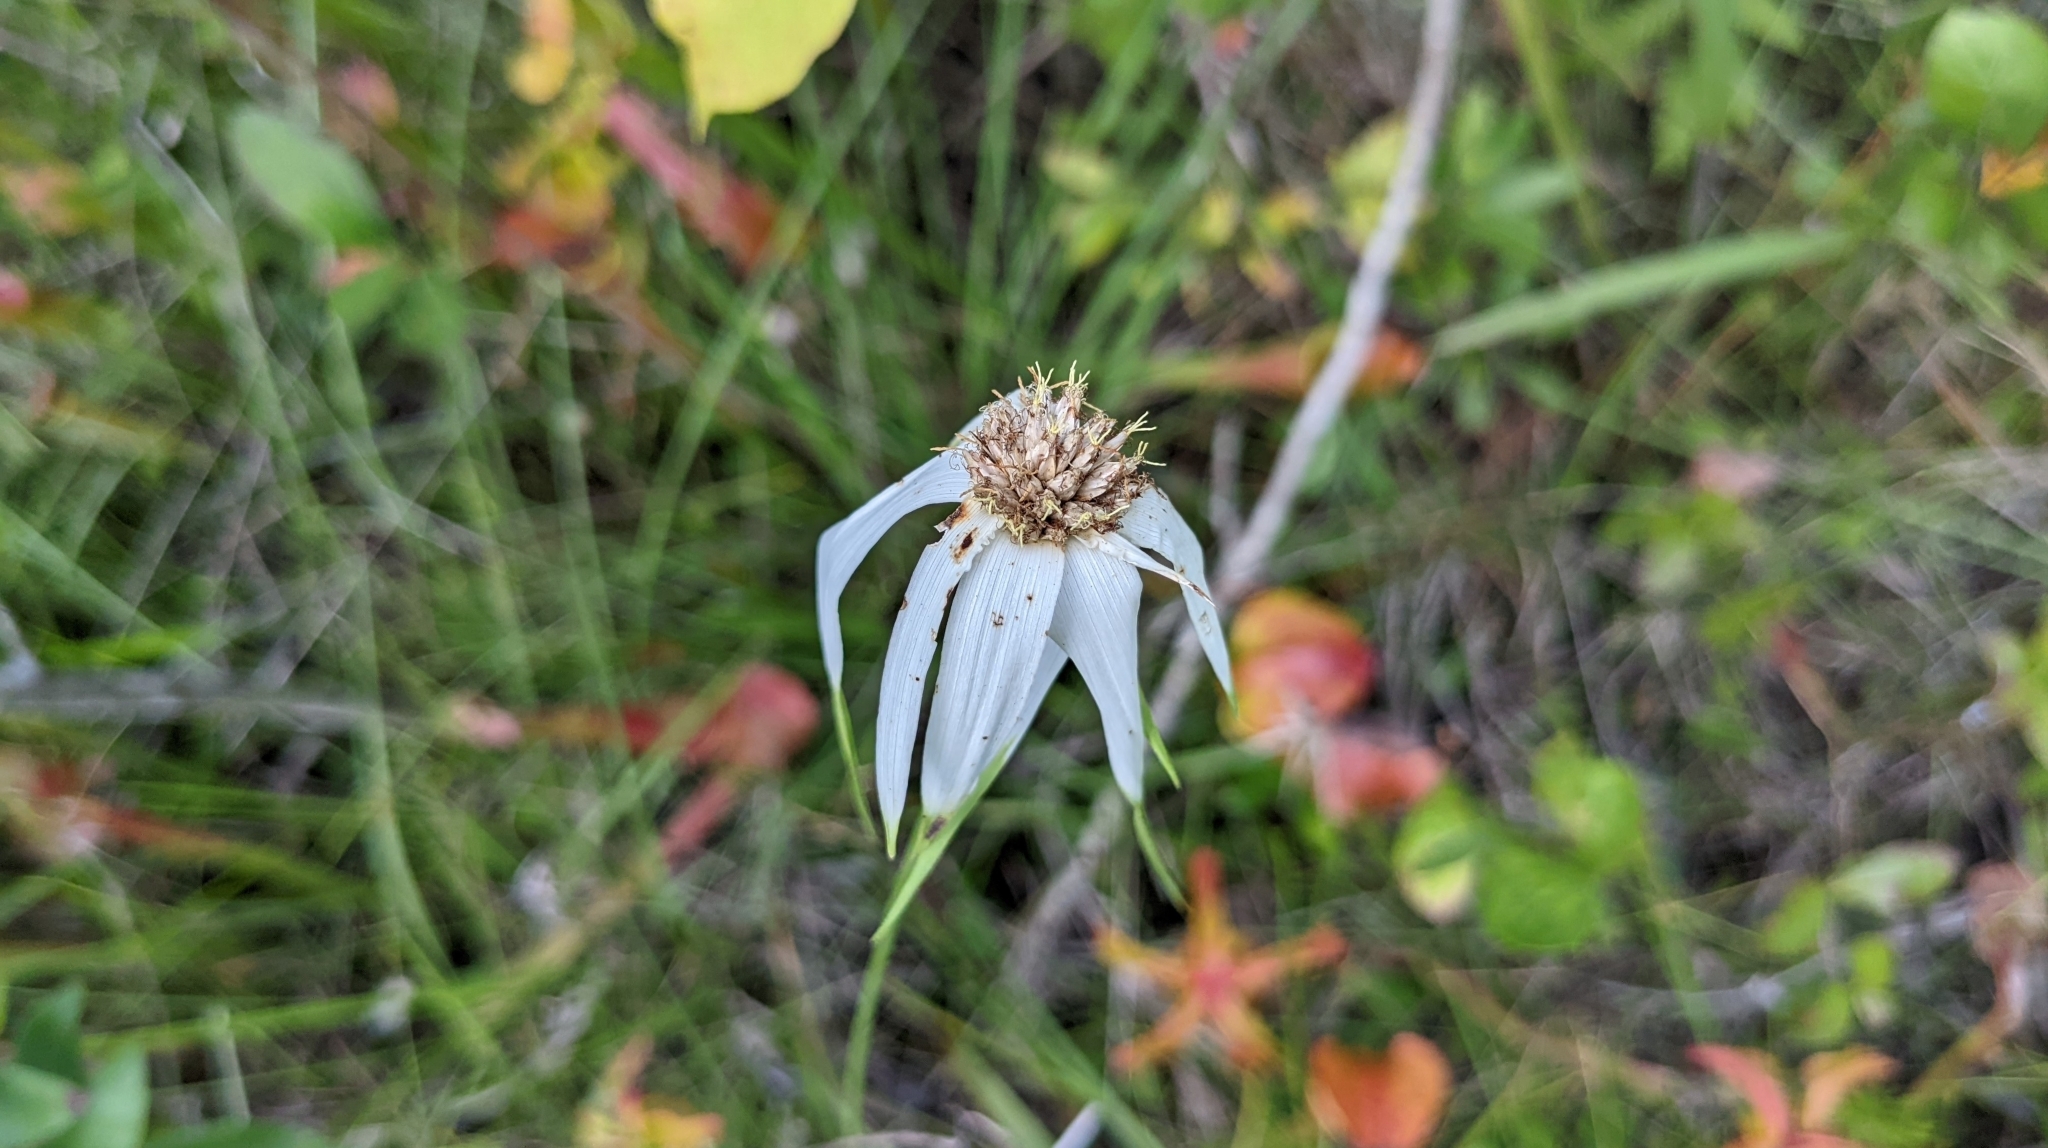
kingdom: Plantae
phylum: Tracheophyta
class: Liliopsida
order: Poales
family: Cyperaceae
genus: Rhynchospora
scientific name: Rhynchospora latifolia
